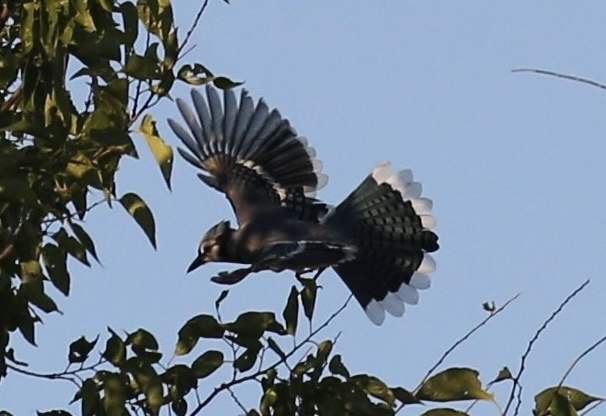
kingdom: Animalia
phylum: Chordata
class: Aves
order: Passeriformes
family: Corvidae
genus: Cyanocitta
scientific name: Cyanocitta cristata
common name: Blue jay
